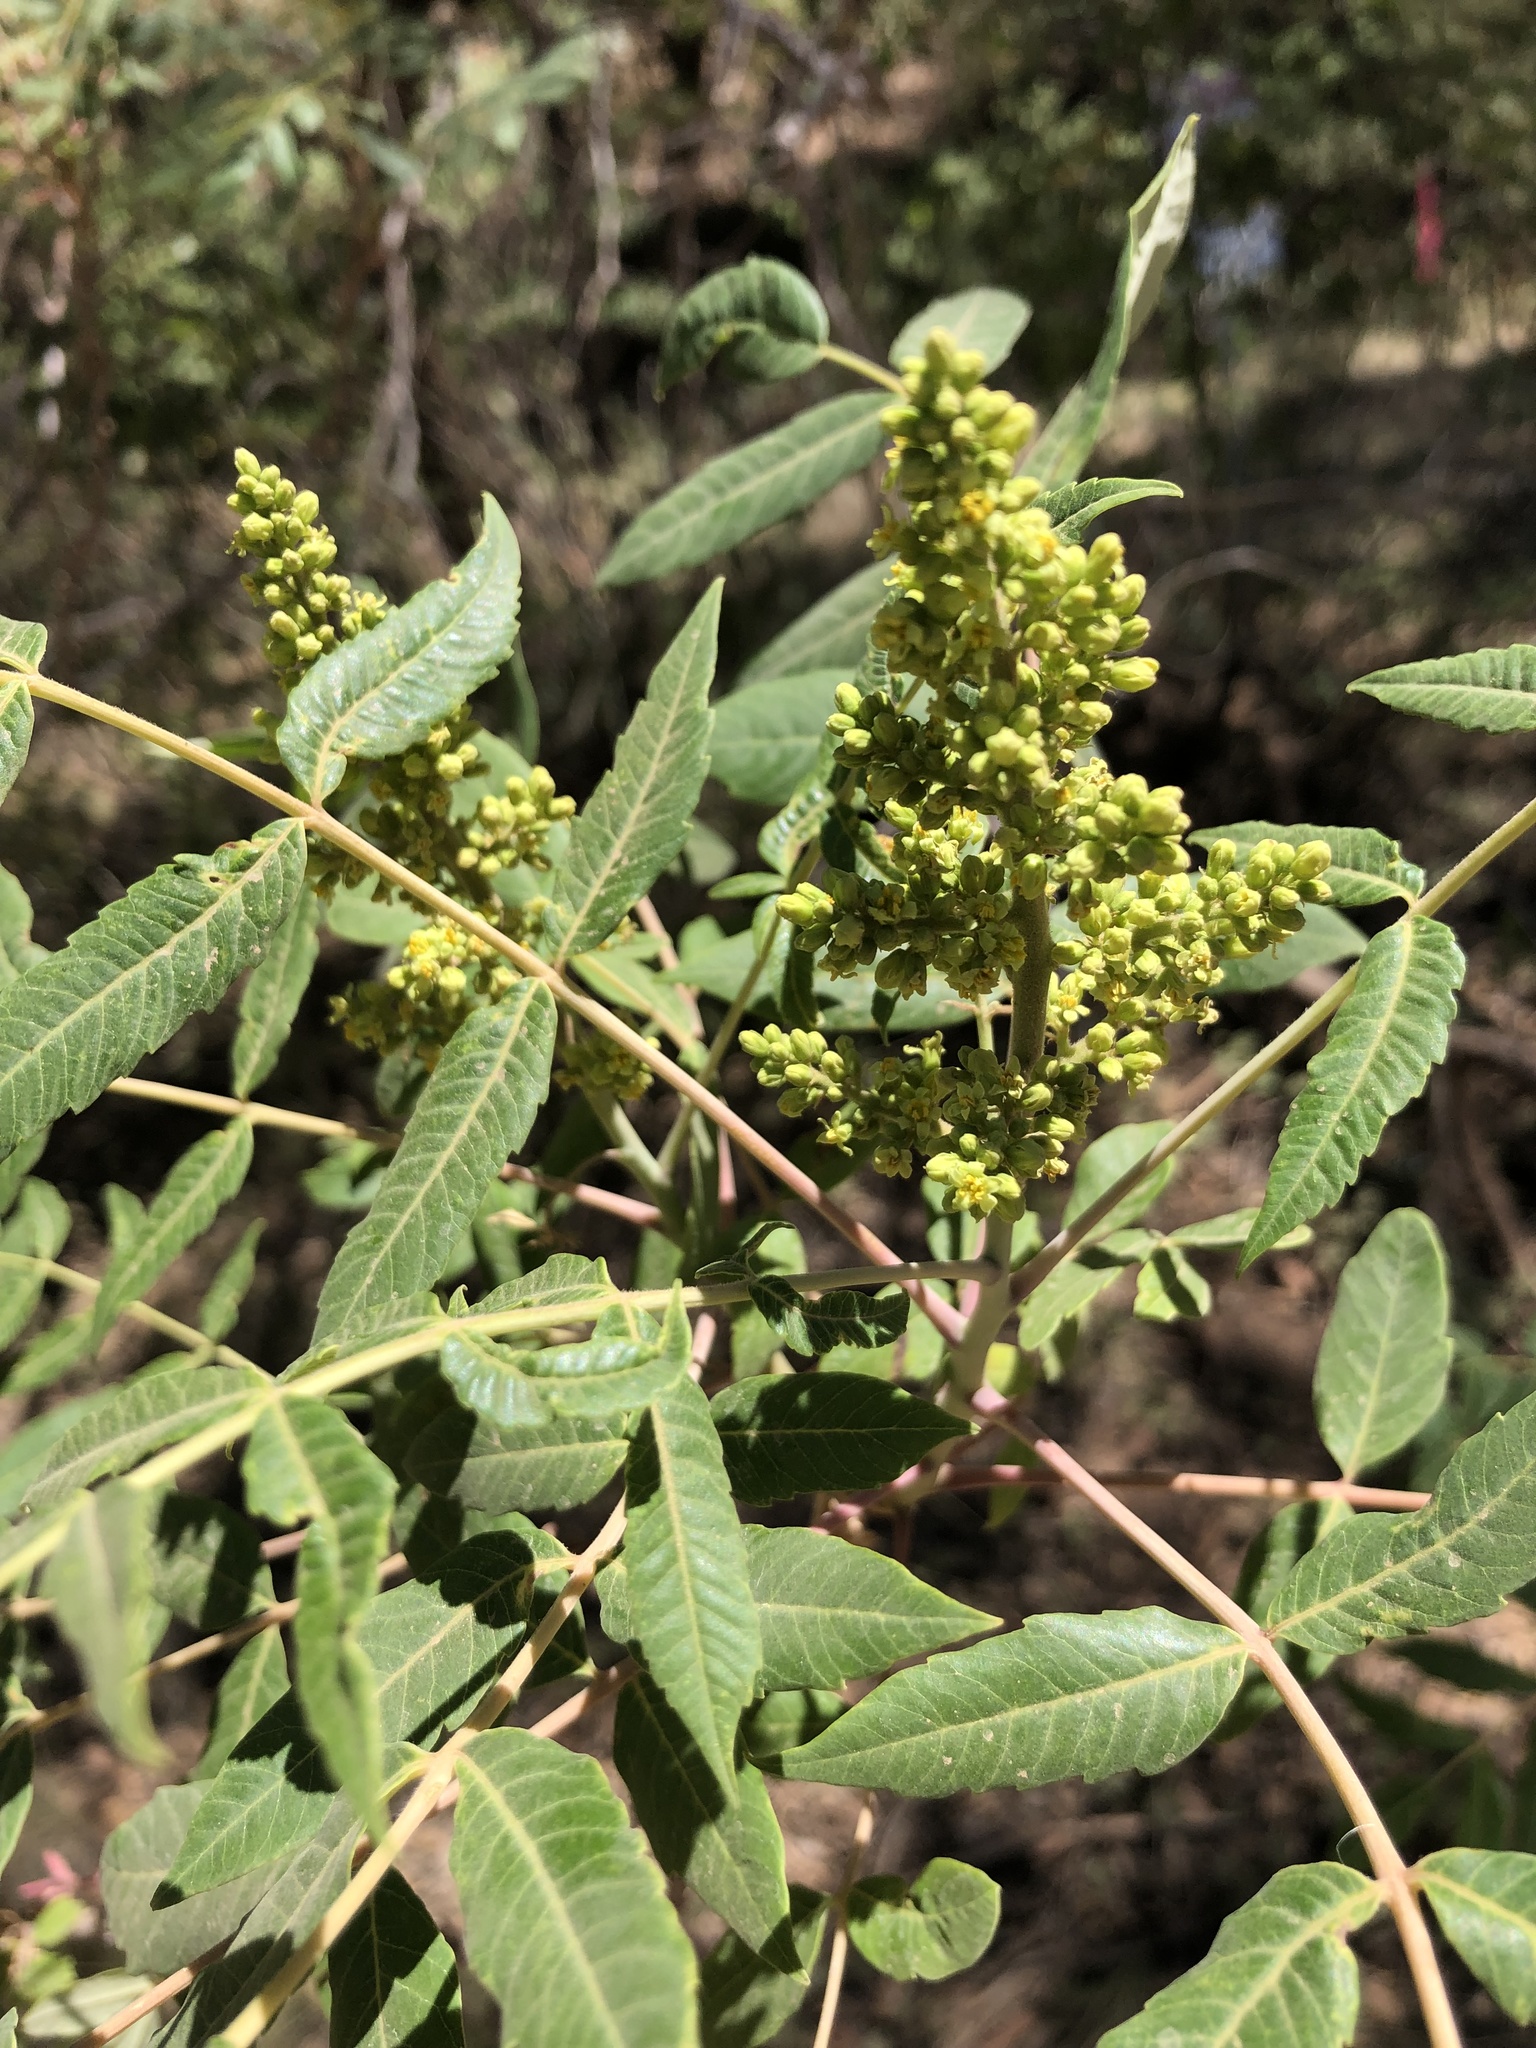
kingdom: Plantae
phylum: Tracheophyta
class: Magnoliopsida
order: Sapindales
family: Anacardiaceae
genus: Rhus
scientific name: Rhus glabra
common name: Scarlet sumac
